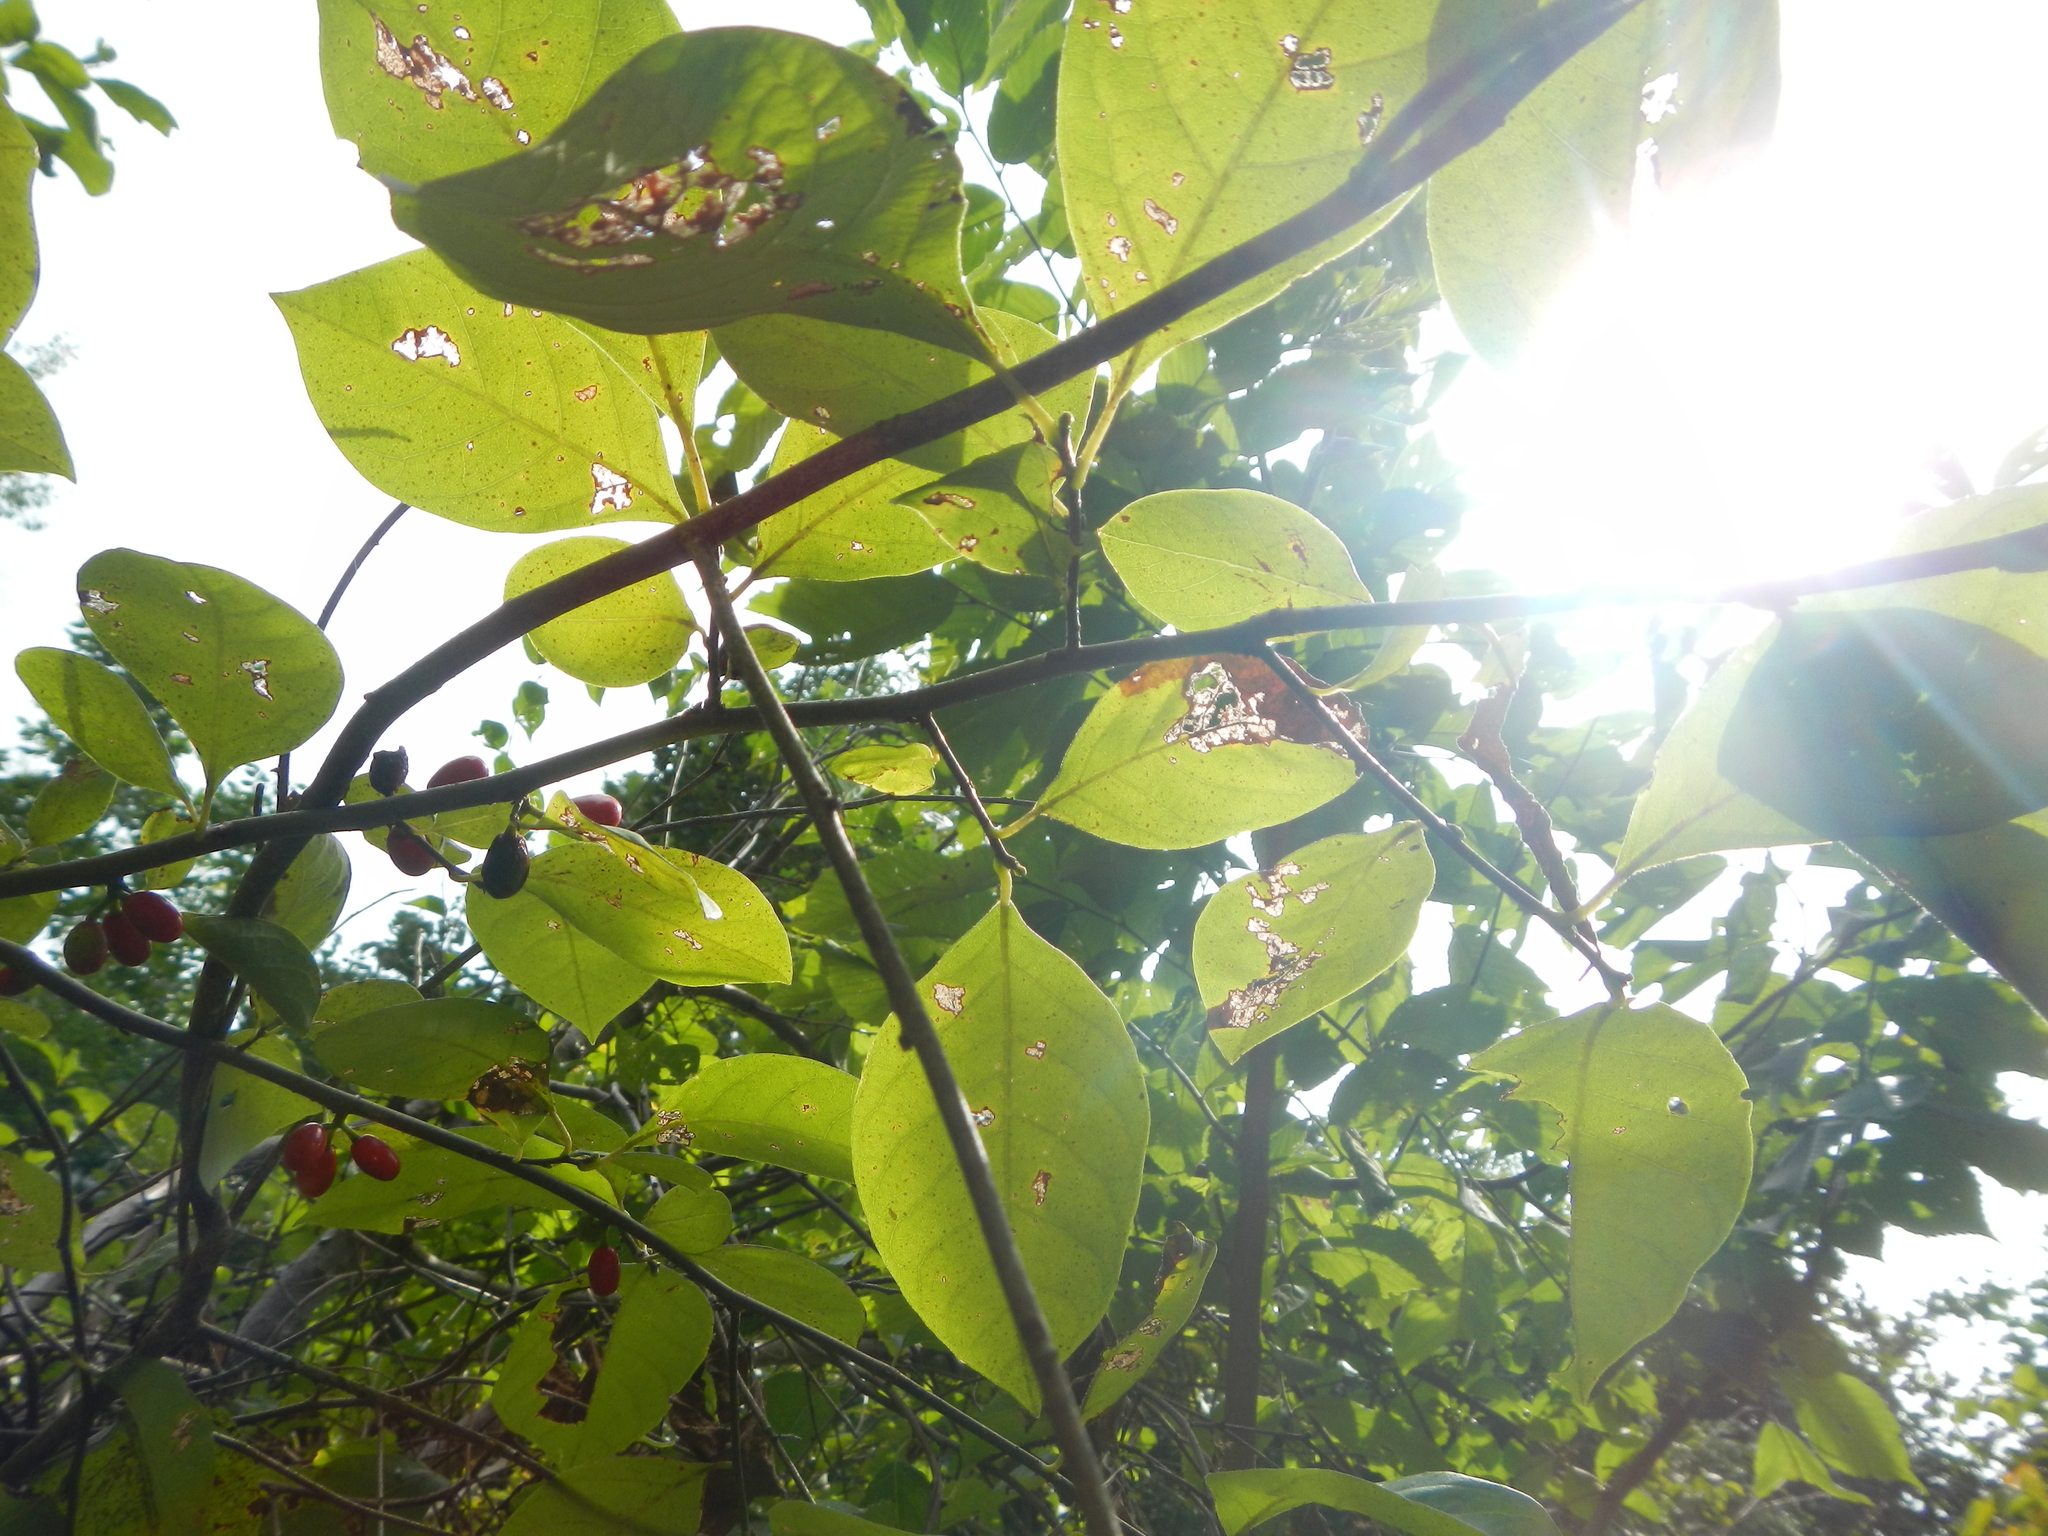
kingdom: Plantae
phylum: Tracheophyta
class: Magnoliopsida
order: Laurales
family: Lauraceae
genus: Lindera
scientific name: Lindera benzoin
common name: Spicebush
